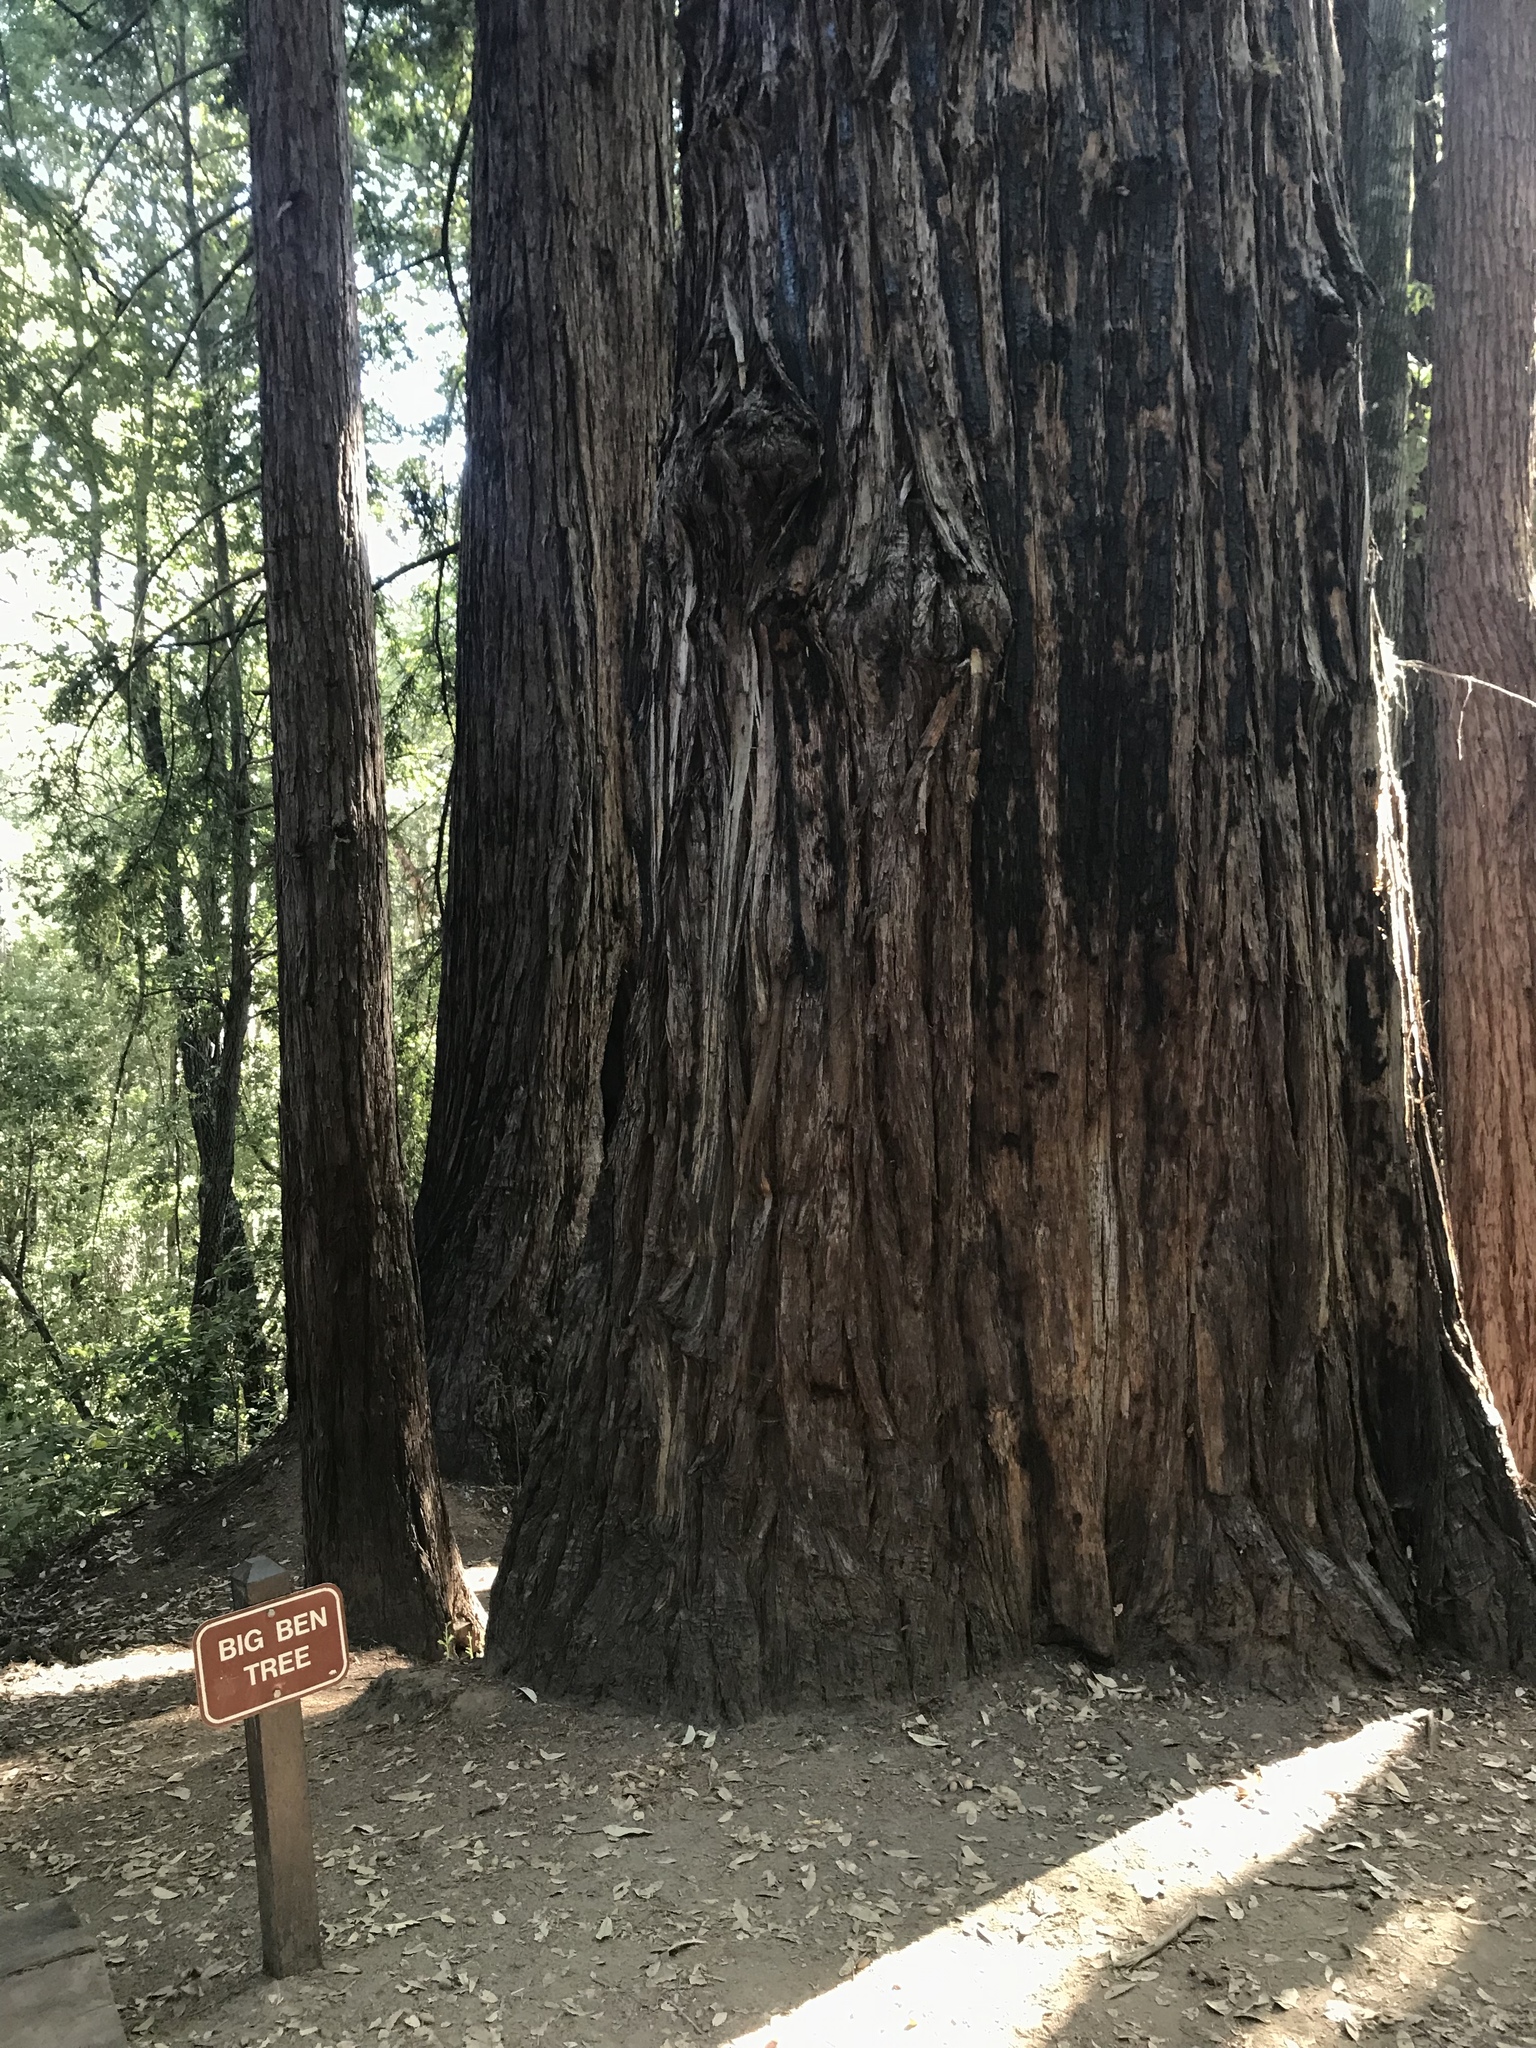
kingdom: Plantae
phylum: Tracheophyta
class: Pinopsida
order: Pinales
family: Cupressaceae
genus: Sequoia
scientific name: Sequoia sempervirens
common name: Coast redwood
